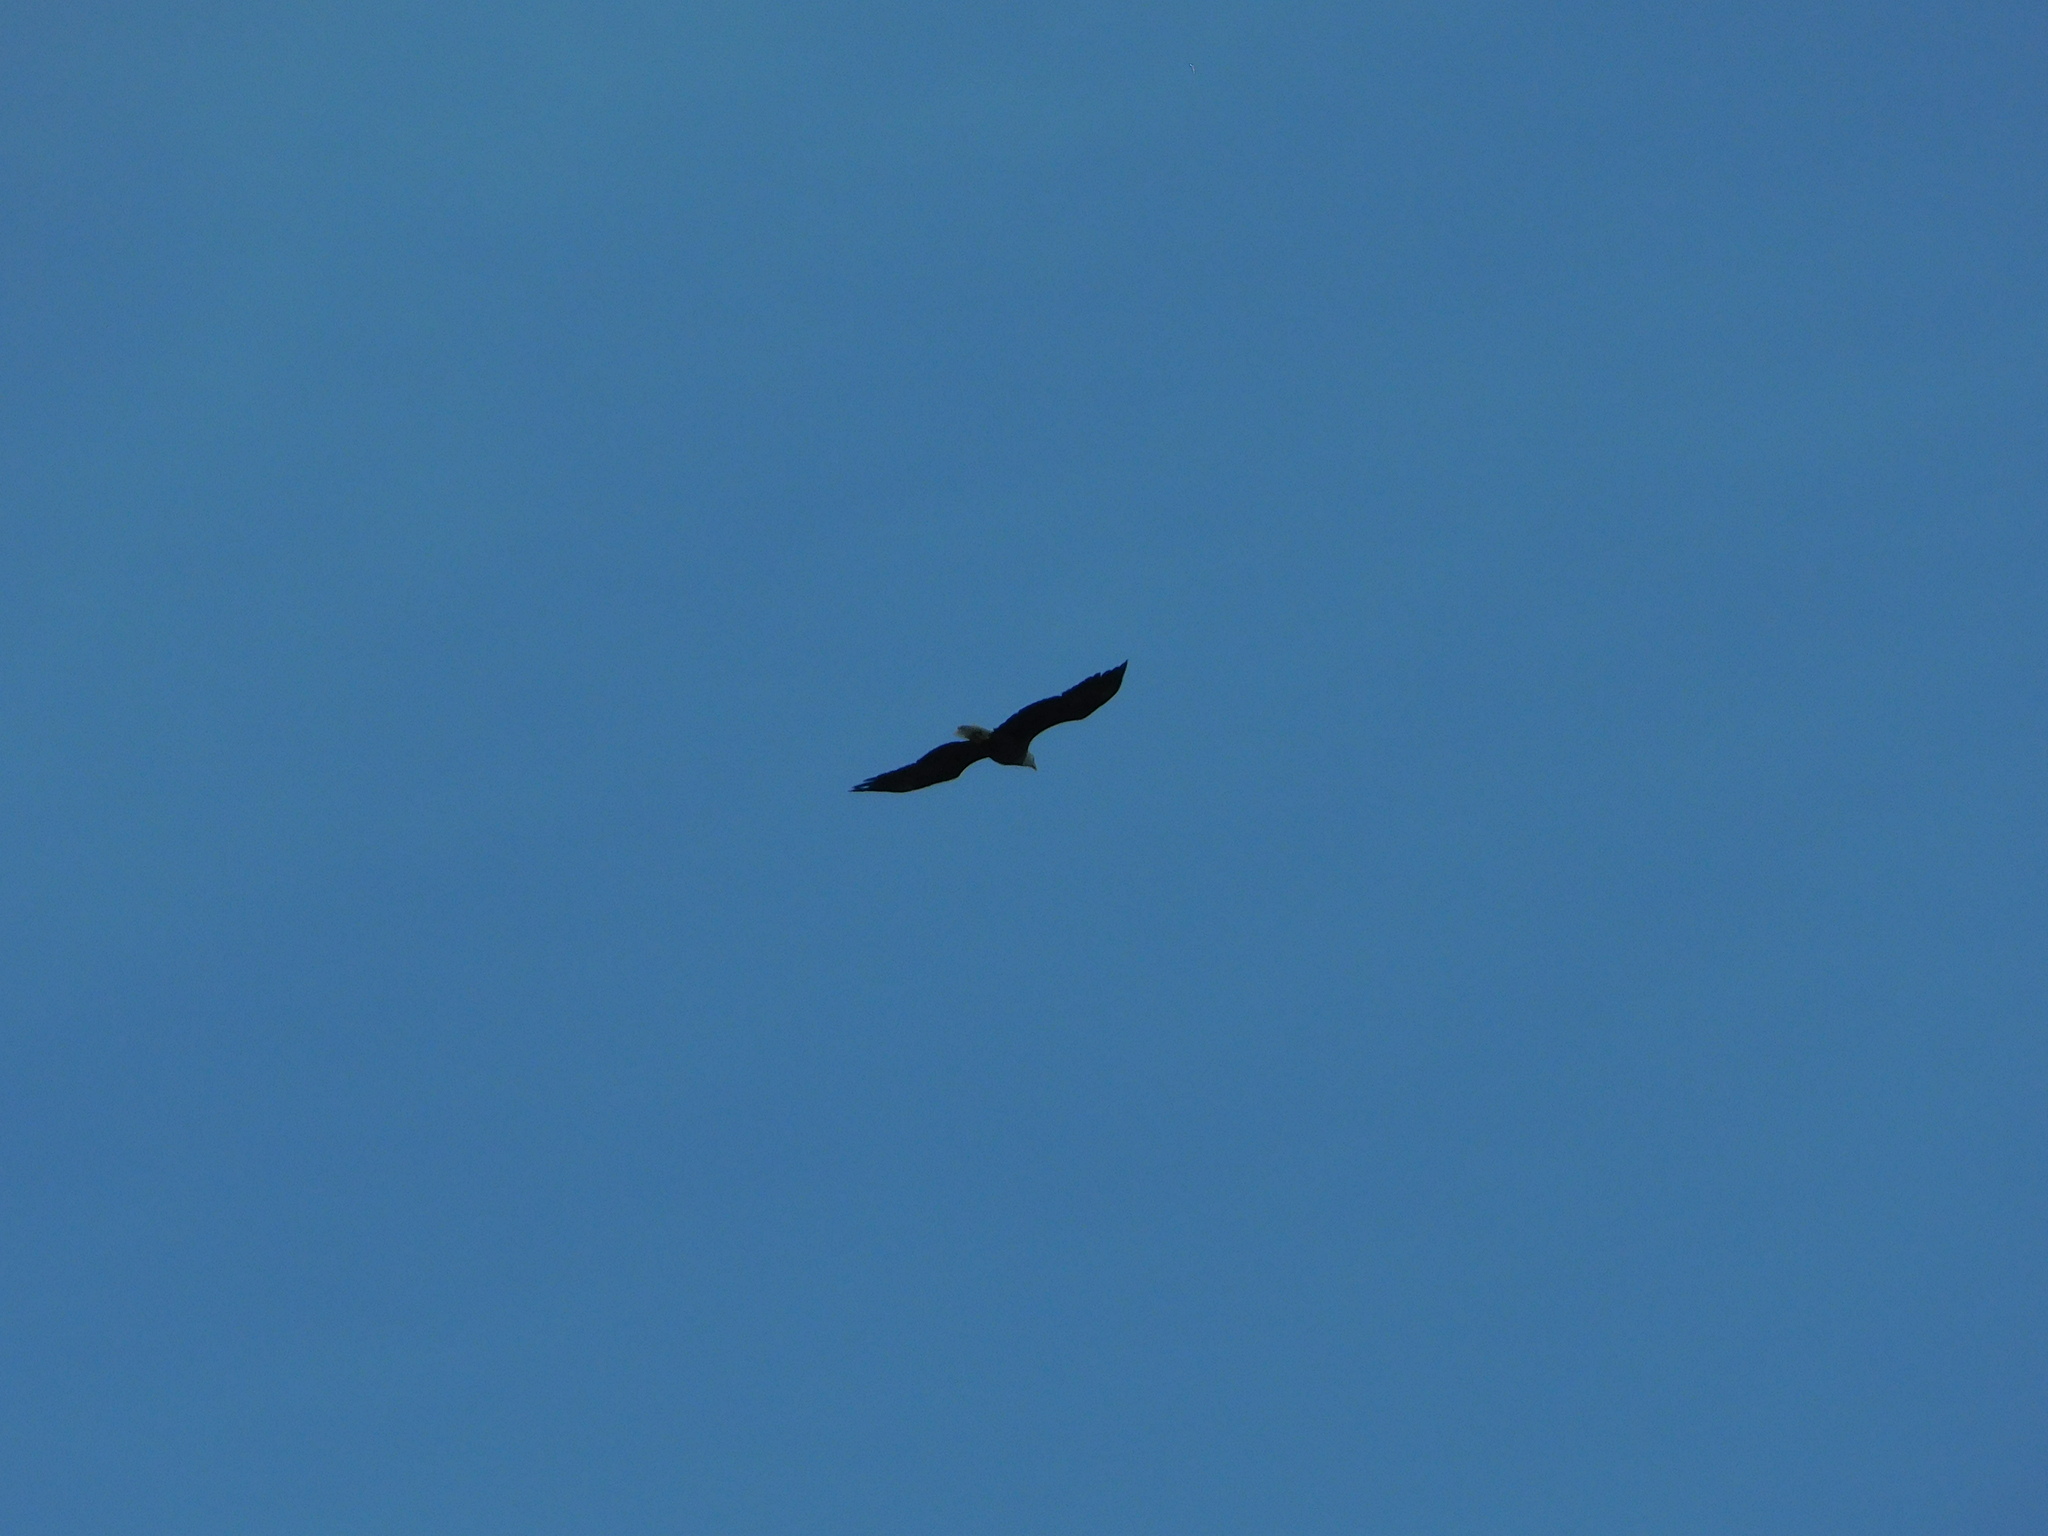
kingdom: Animalia
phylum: Chordata
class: Aves
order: Accipitriformes
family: Accipitridae
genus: Haliaeetus
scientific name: Haliaeetus leucocephalus
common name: Bald eagle
